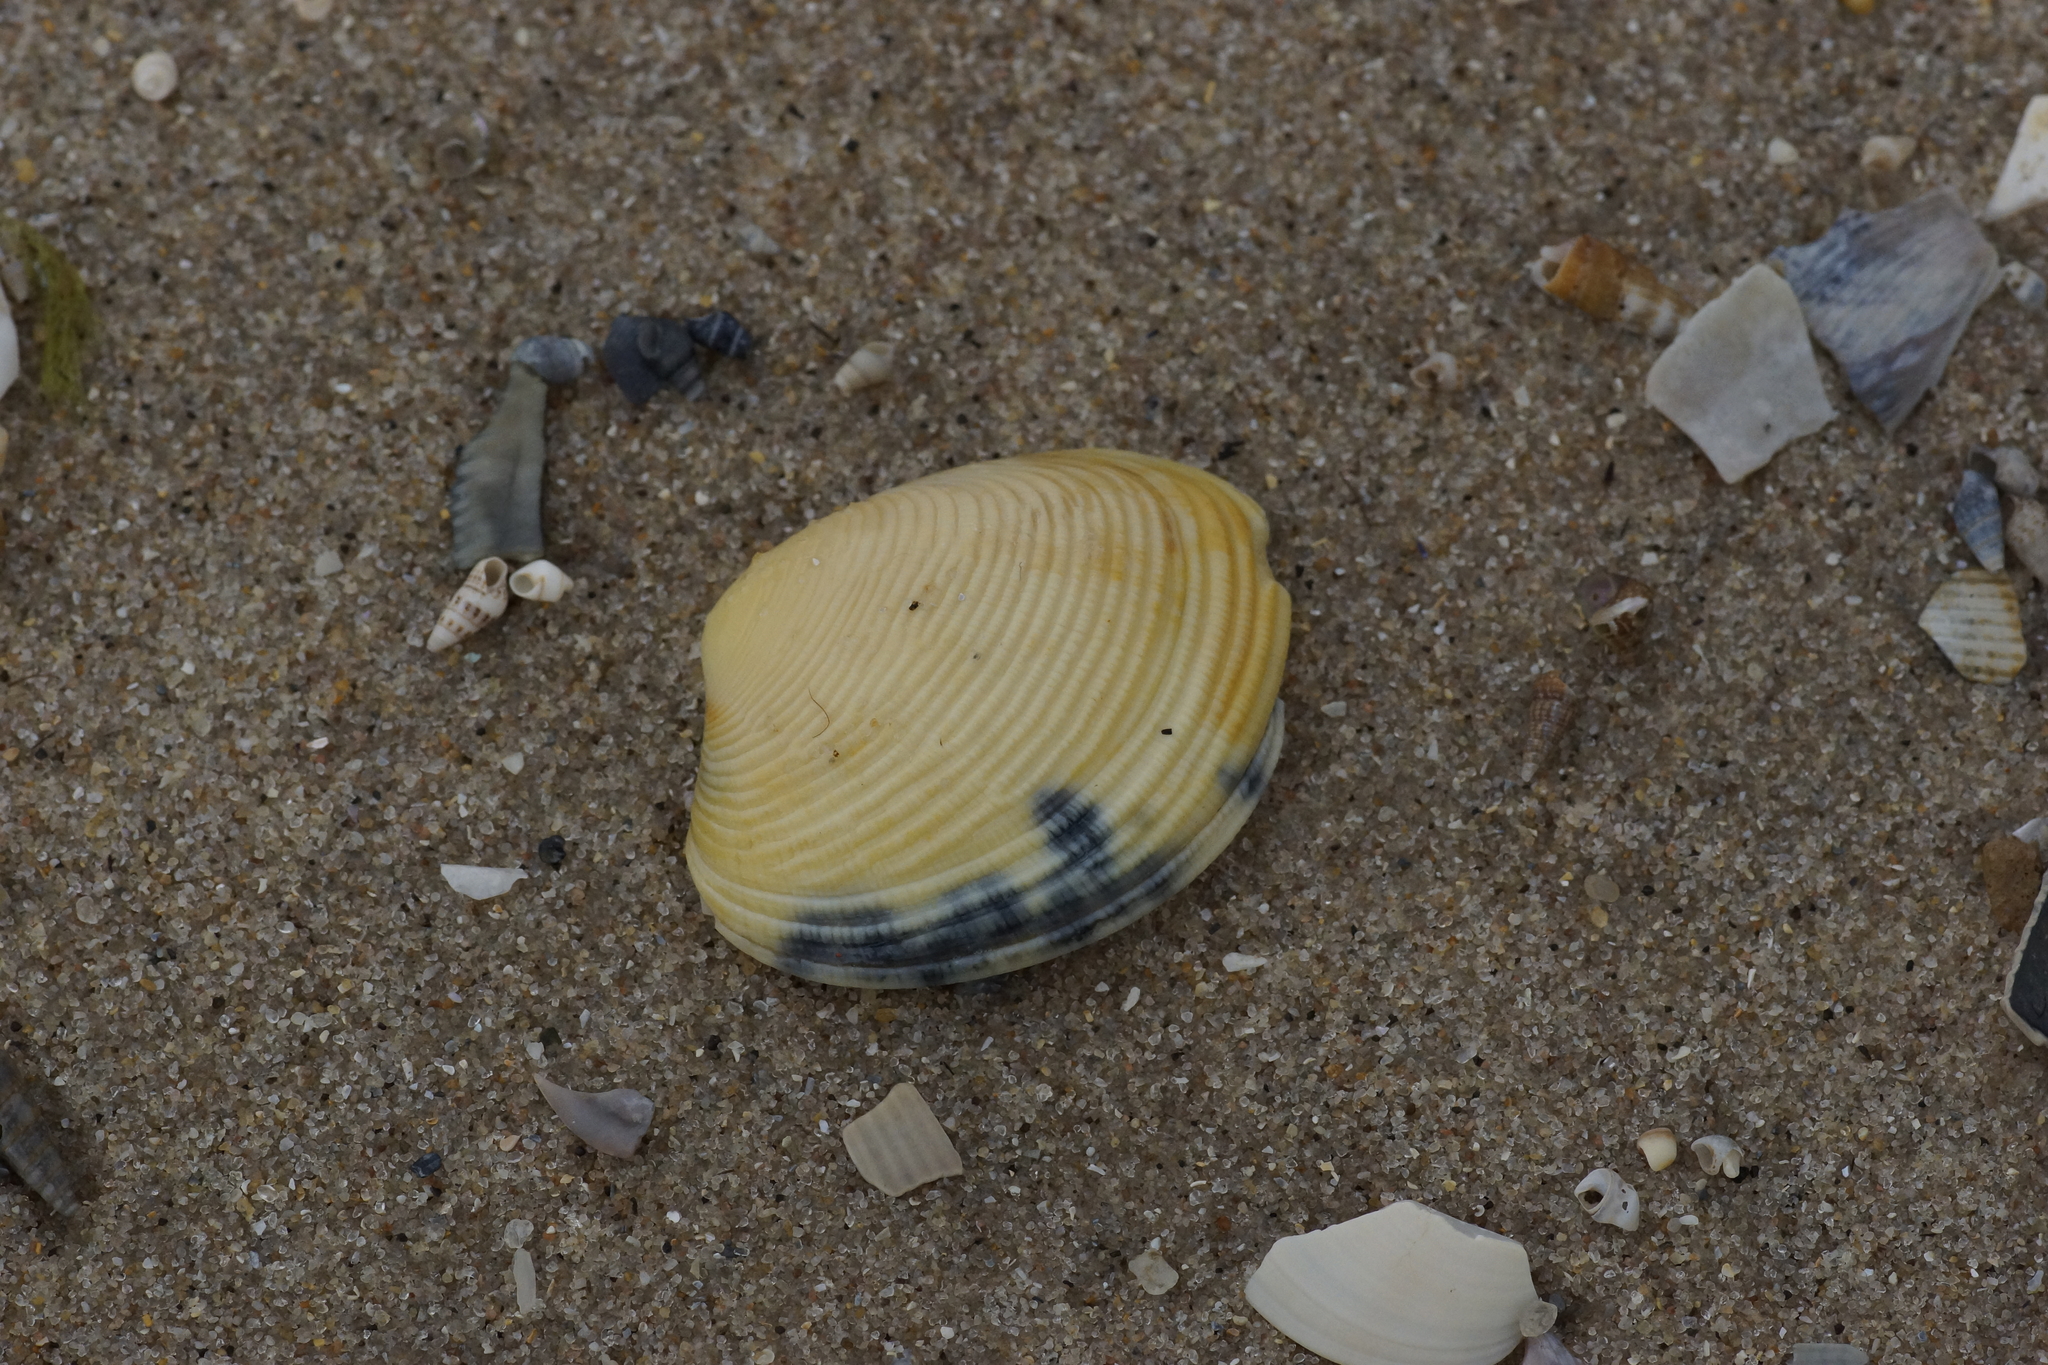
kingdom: Animalia
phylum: Mollusca
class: Bivalvia
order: Venerida
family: Veneridae
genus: Katelysia
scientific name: Katelysia rhytiphora
